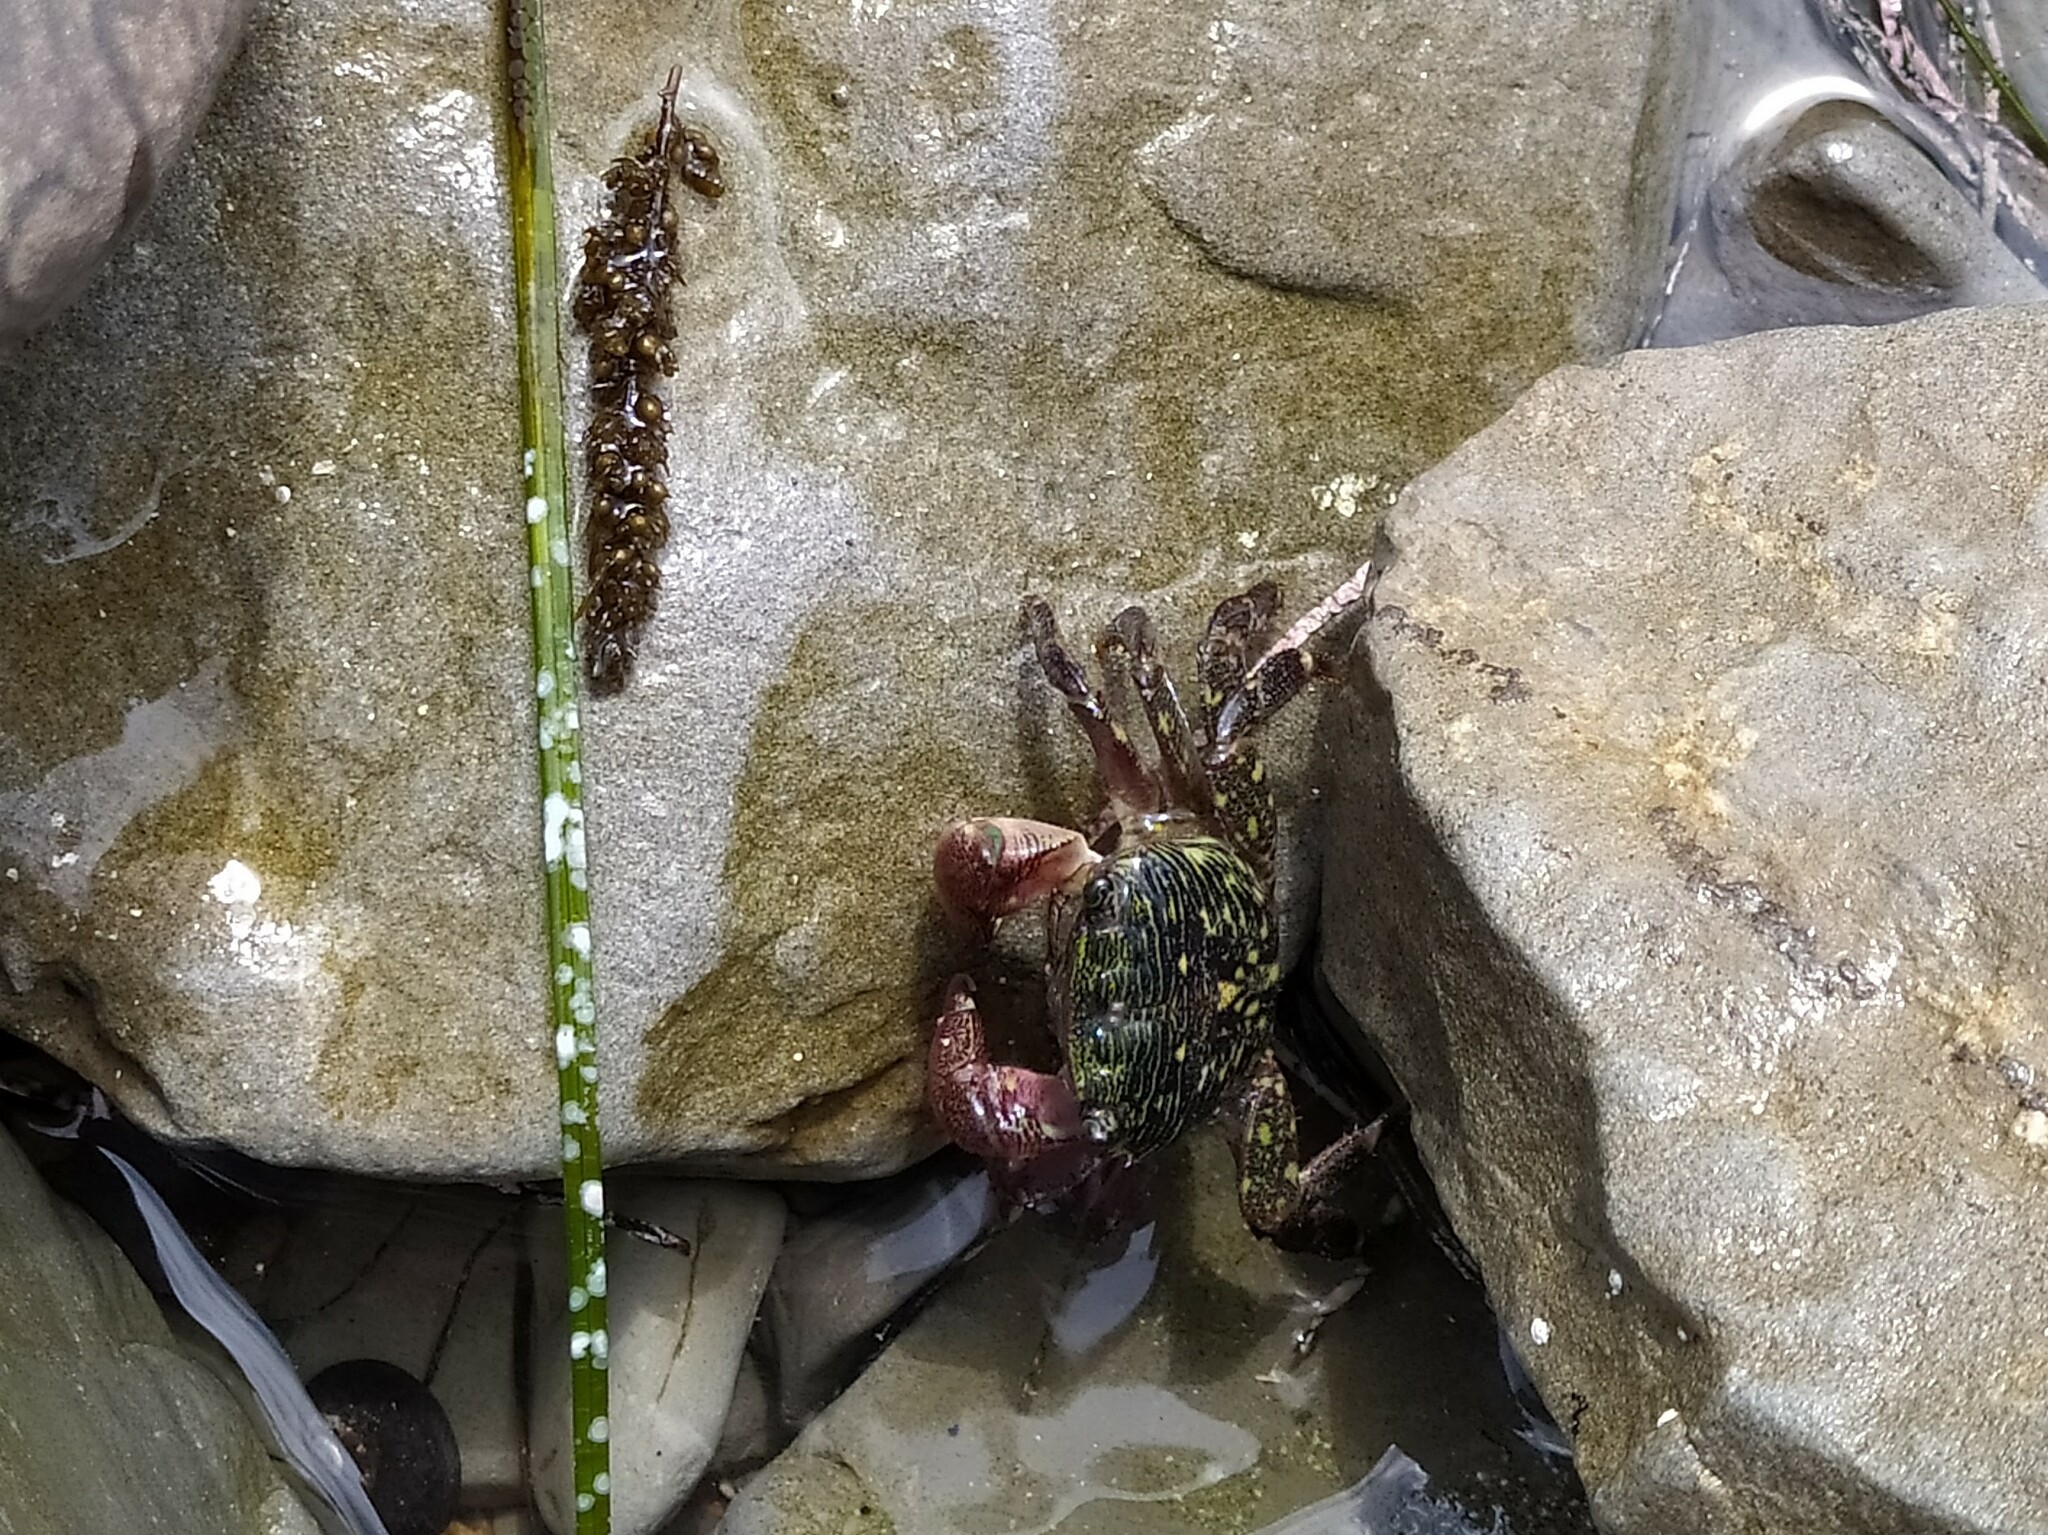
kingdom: Animalia
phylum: Arthropoda
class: Malacostraca
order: Decapoda
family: Grapsidae
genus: Pachygrapsus
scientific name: Pachygrapsus crassipes
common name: Striped shore crab
